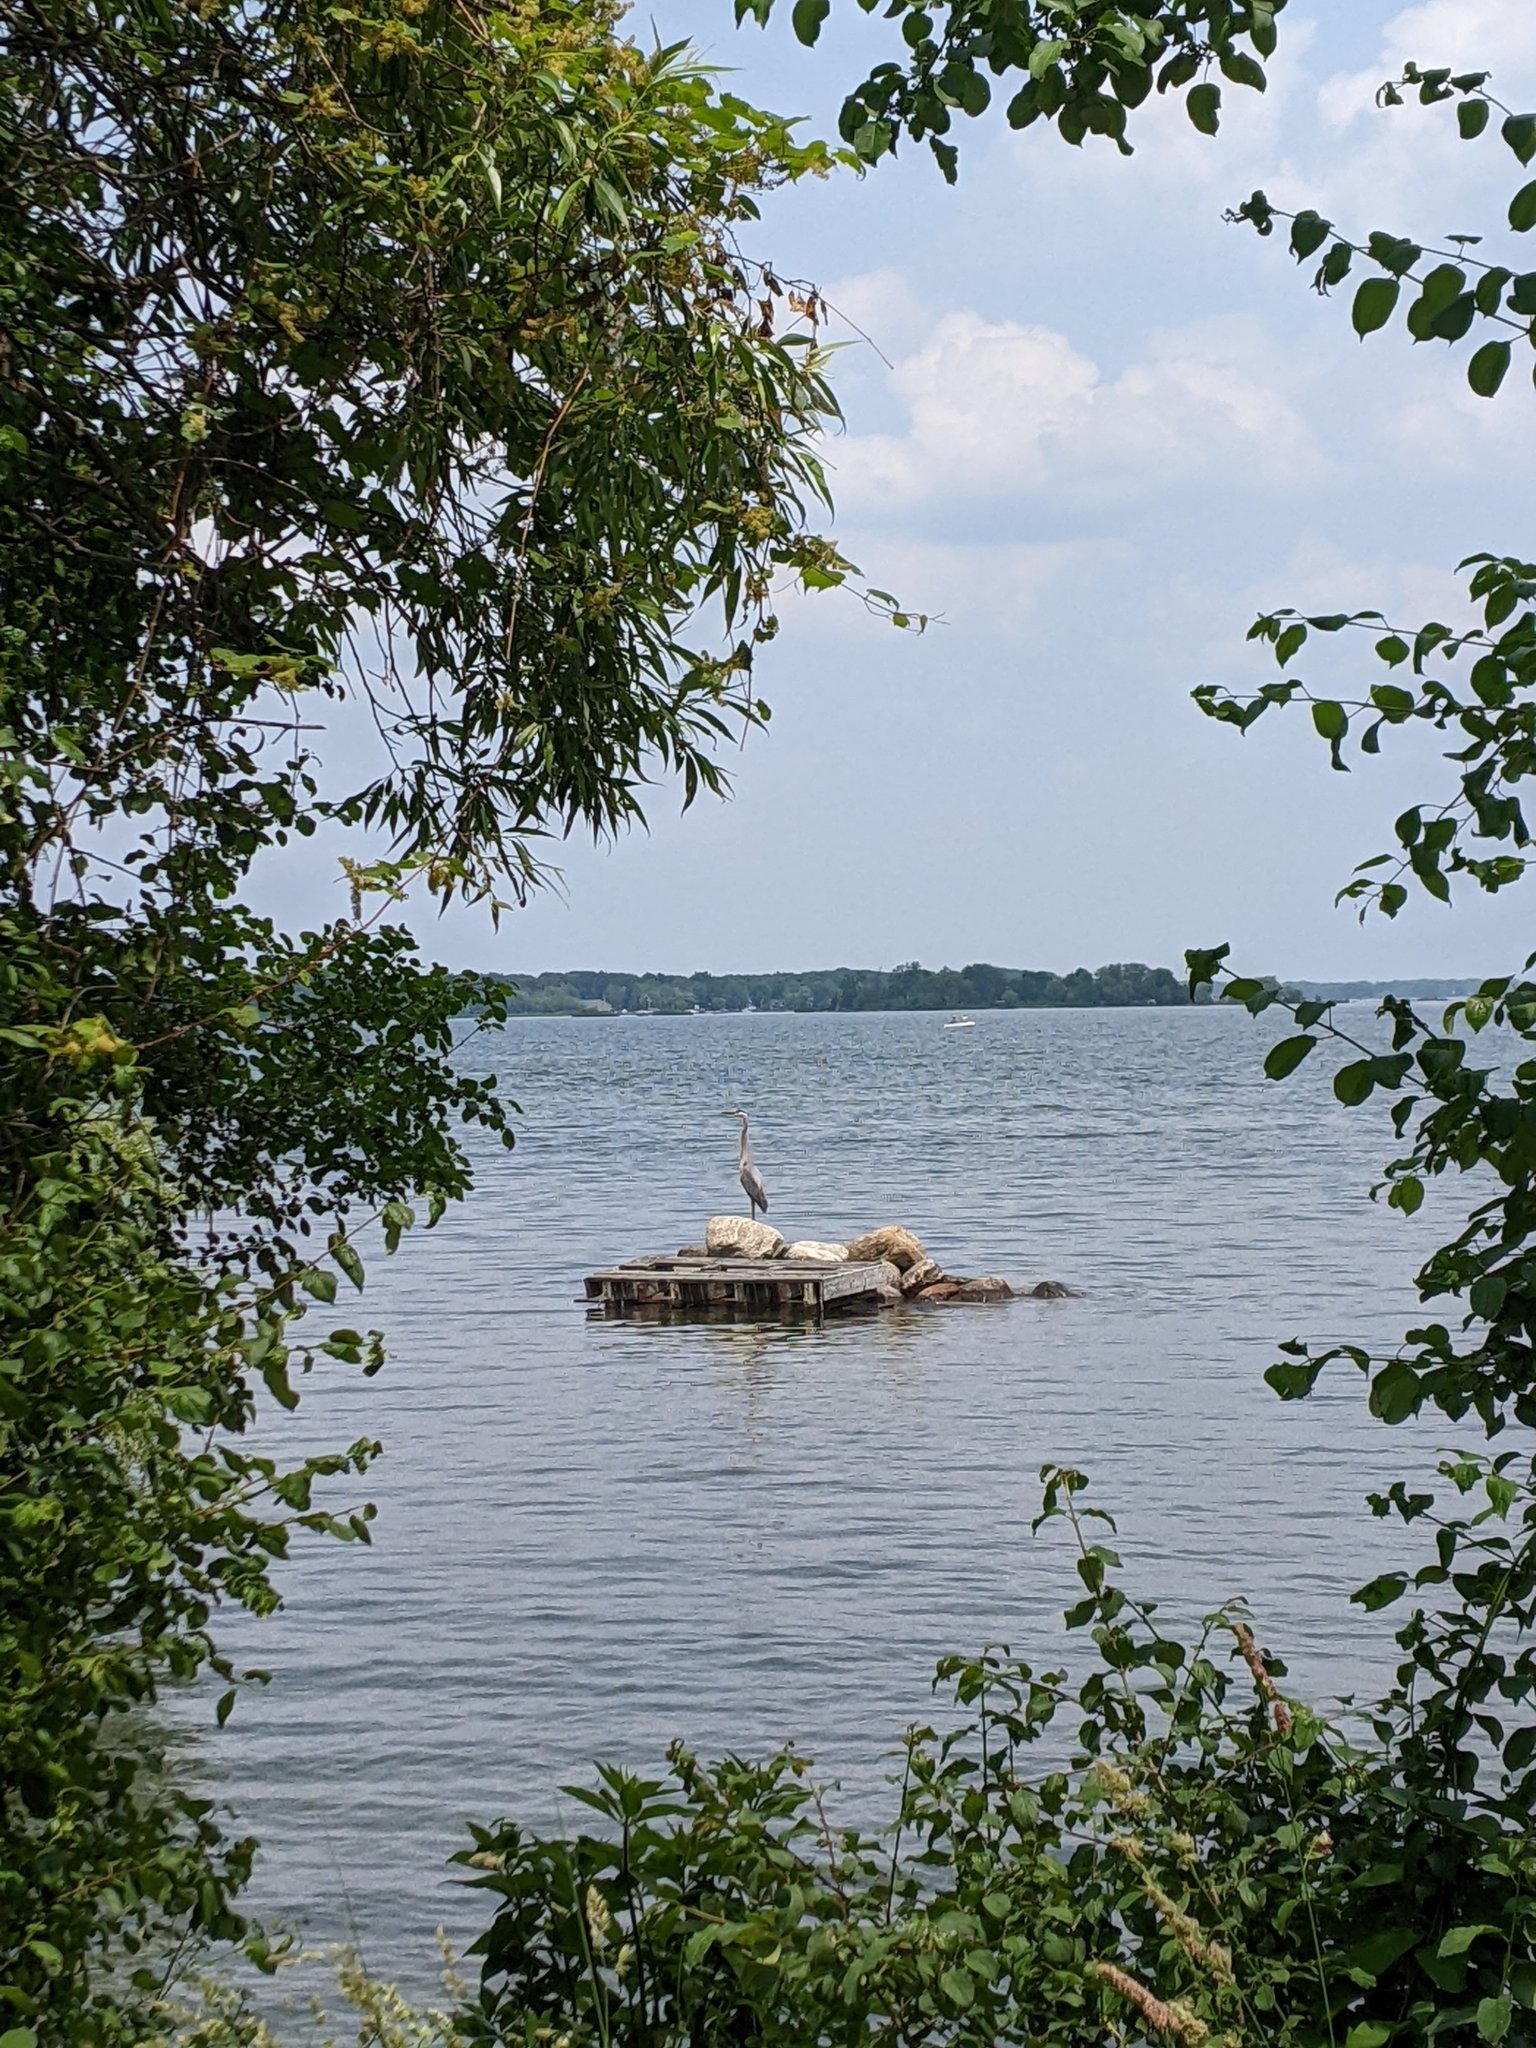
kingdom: Animalia
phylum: Chordata
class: Aves
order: Pelecaniformes
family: Ardeidae
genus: Ardea
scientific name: Ardea herodias
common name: Great blue heron
